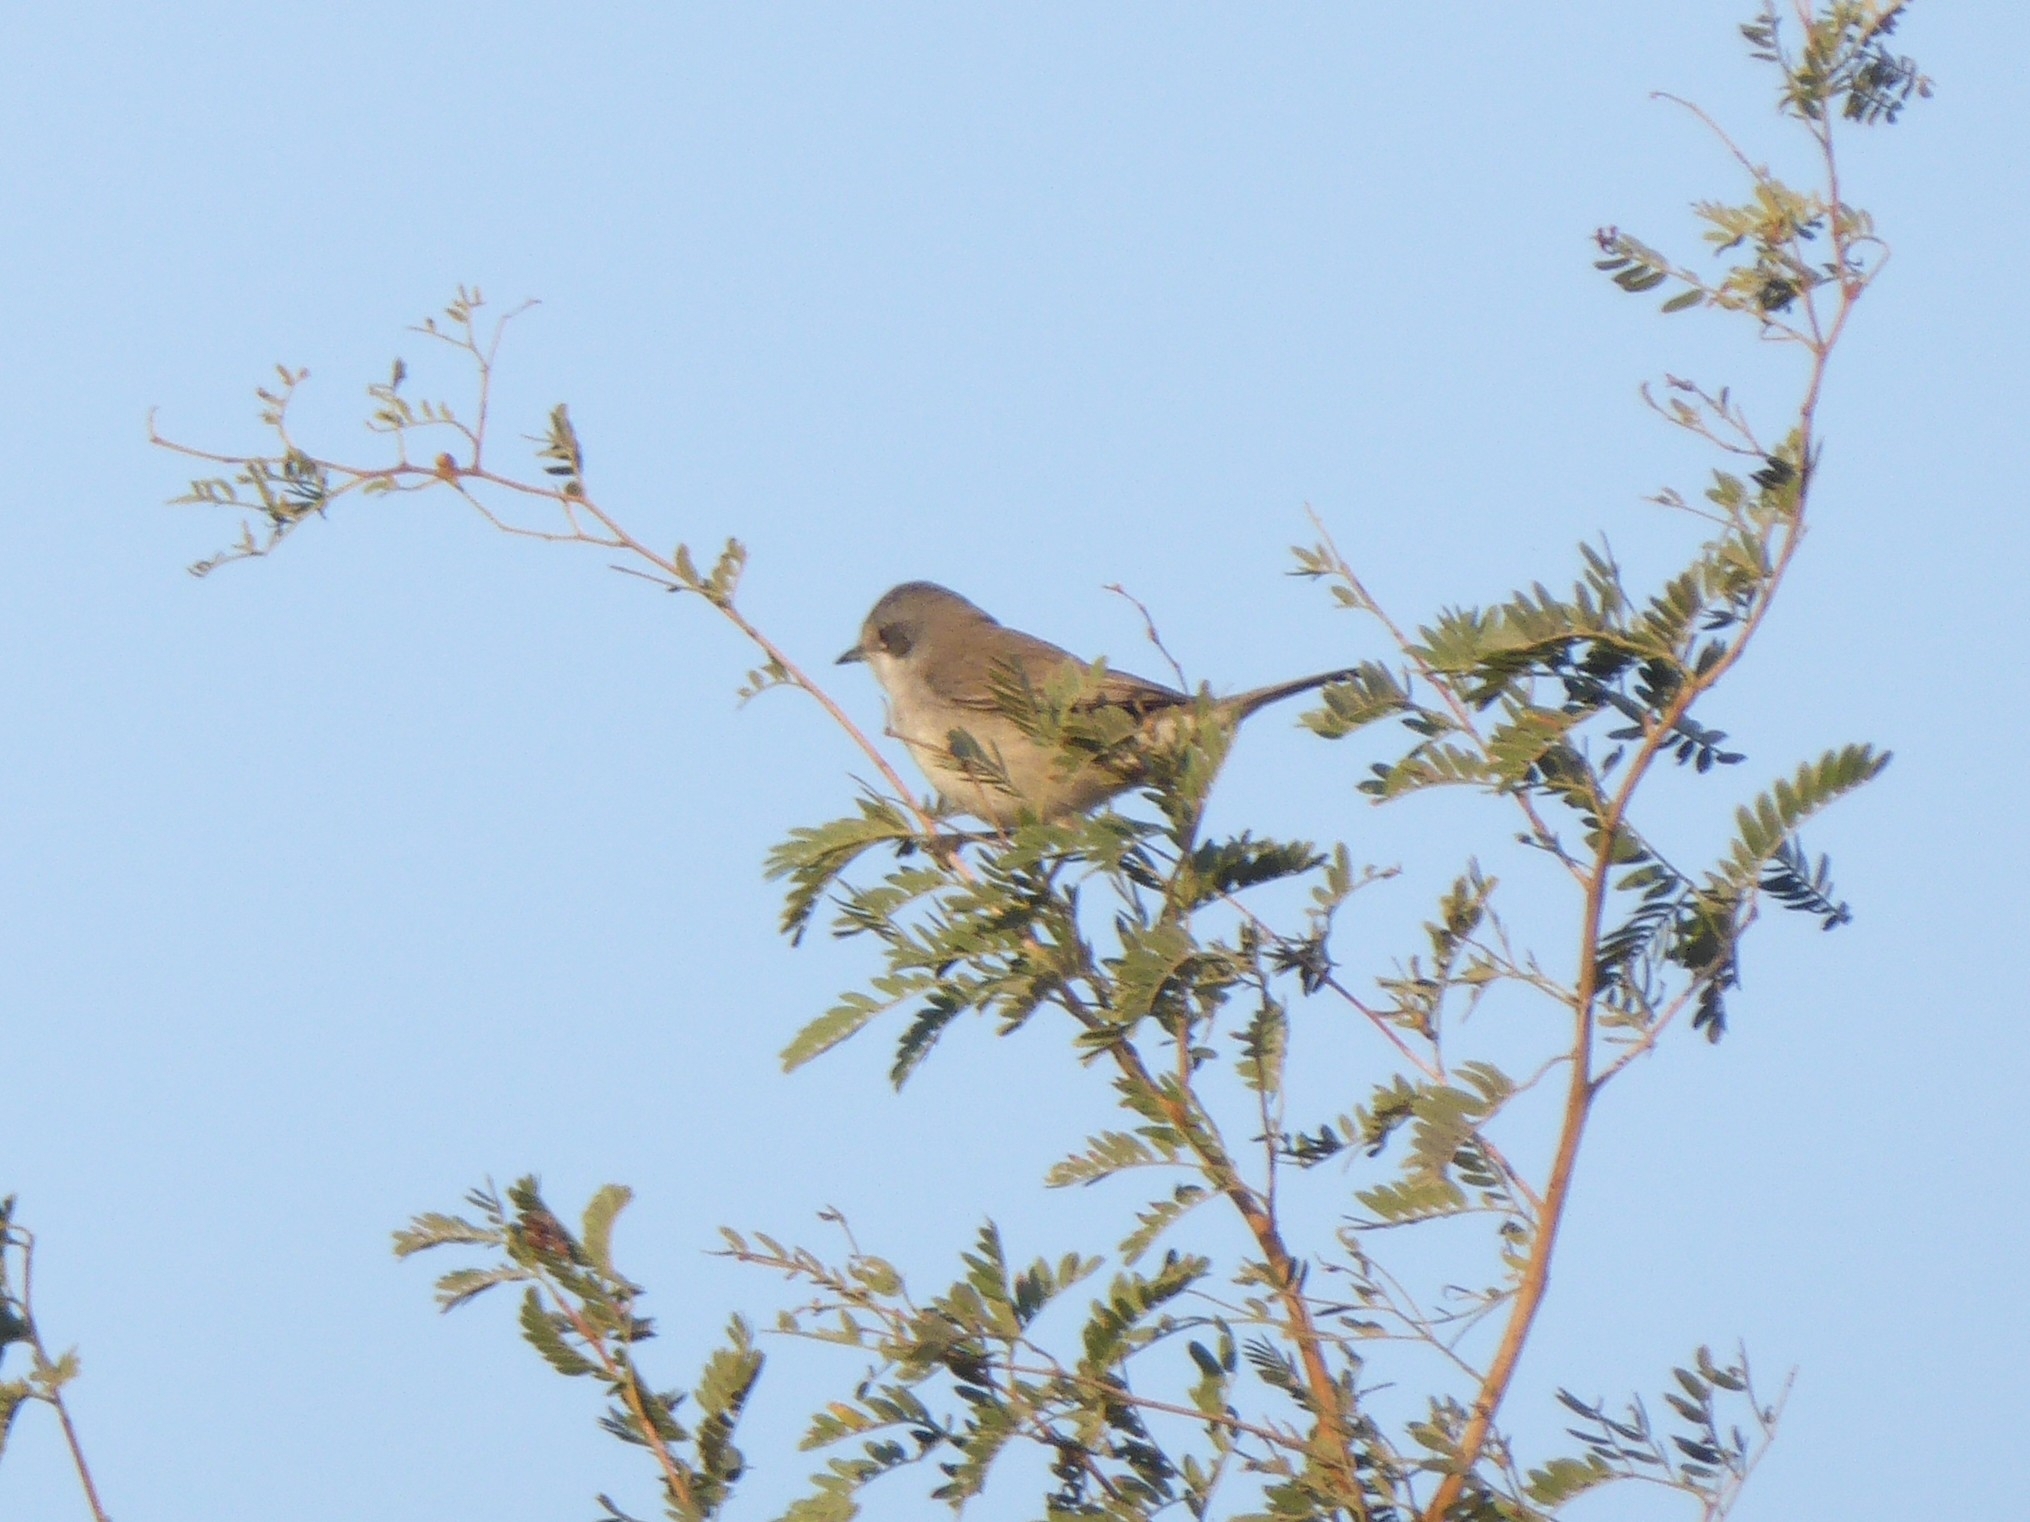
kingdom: Animalia
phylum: Chordata
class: Aves
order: Passeriformes
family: Sylviidae
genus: Sylvia
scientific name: Sylvia curruca
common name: Lesser whitethroat
